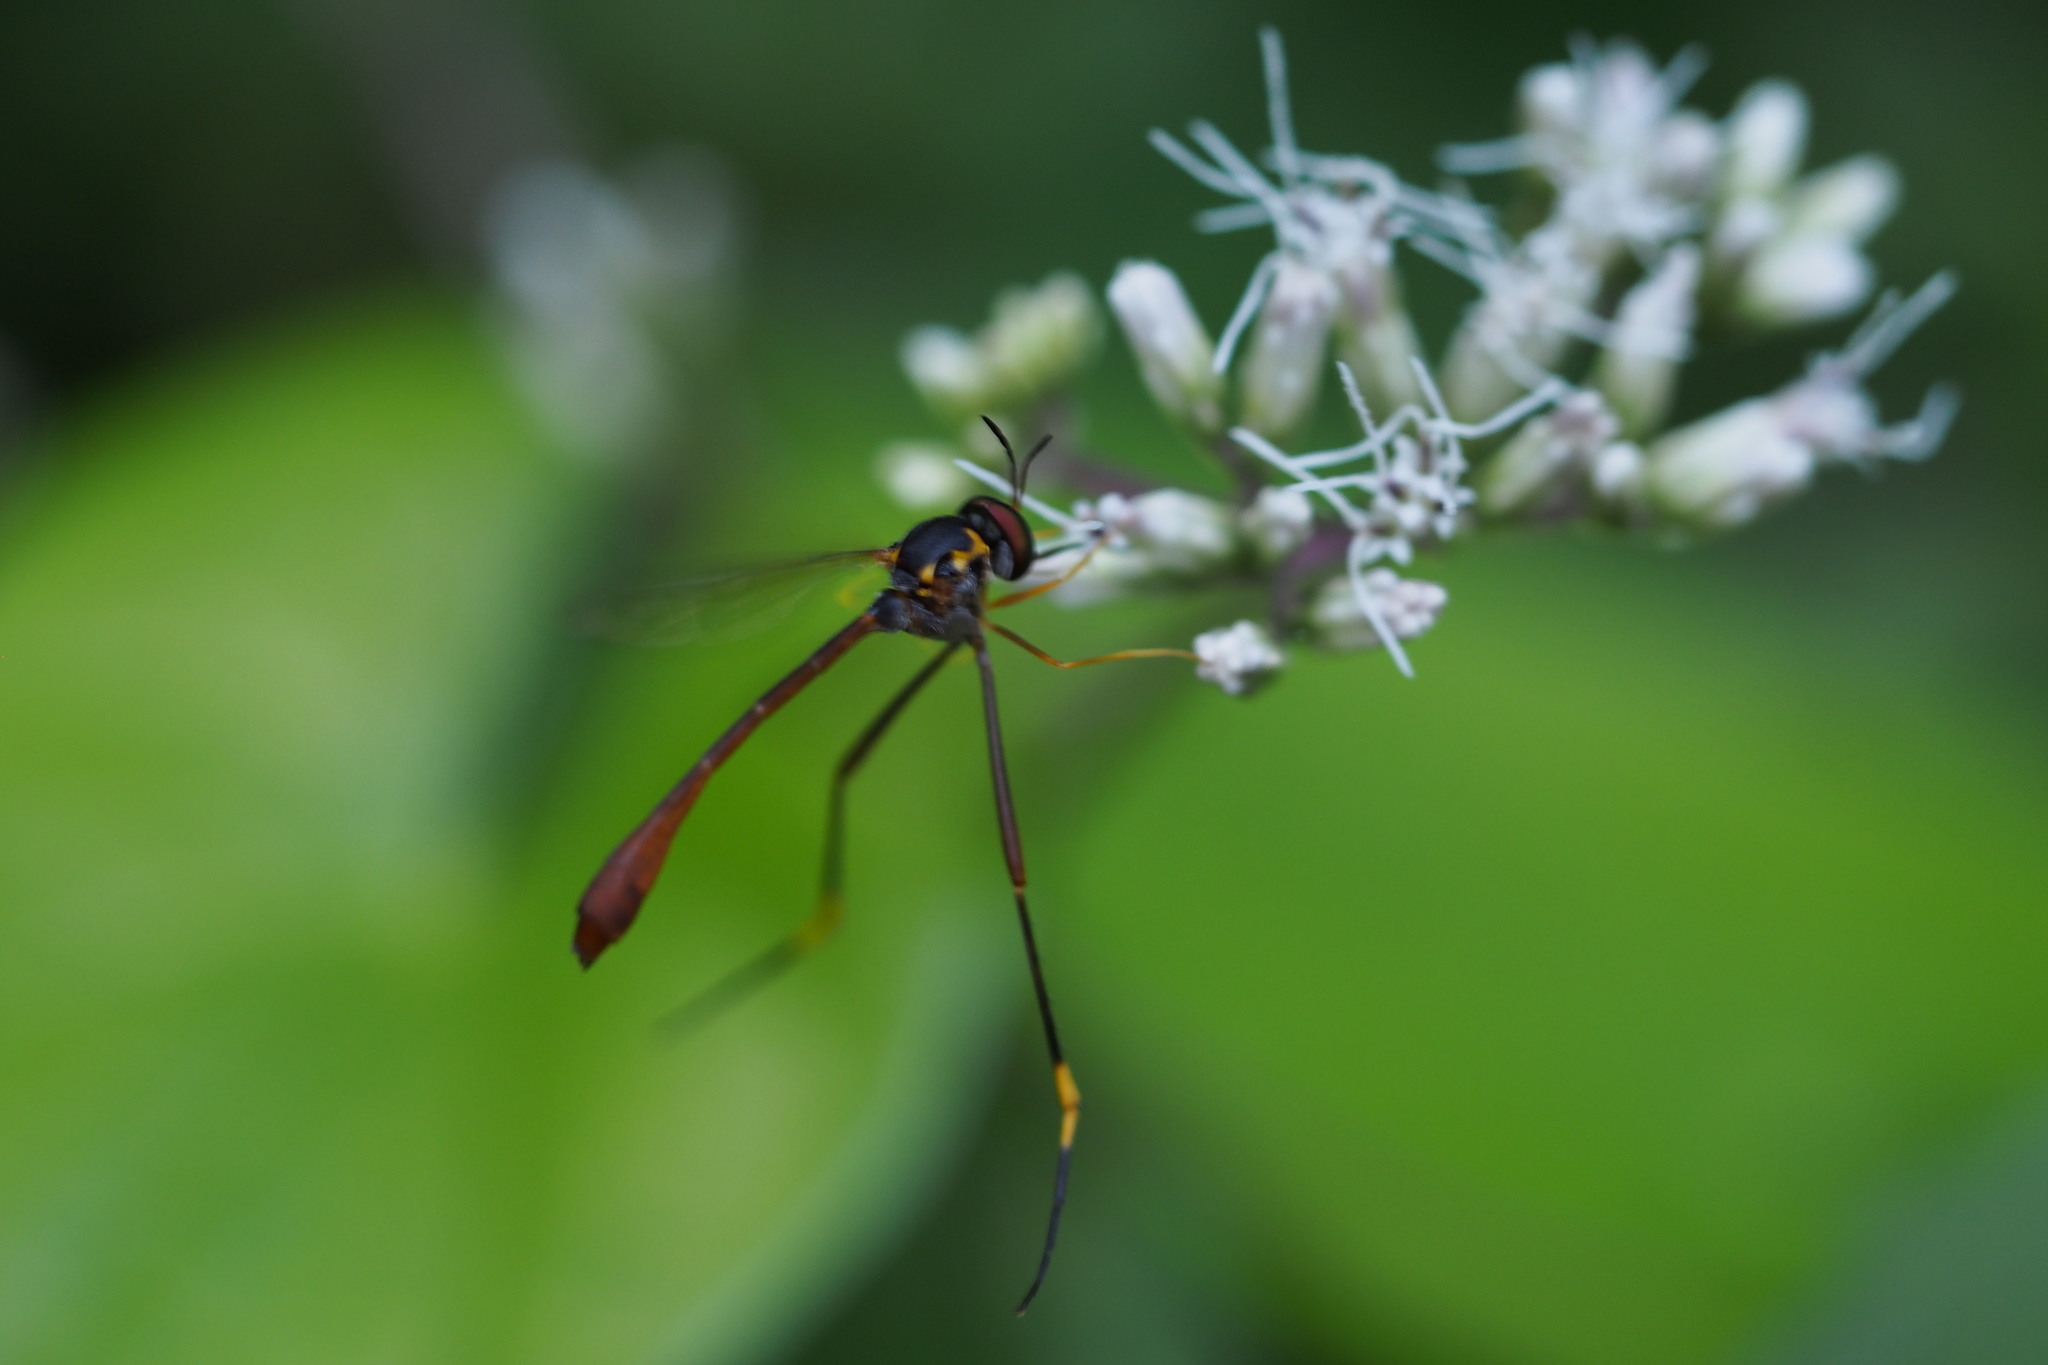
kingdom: Animalia
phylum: Arthropoda
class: Insecta
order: Diptera
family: Bombyliidae
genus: Systropus
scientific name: Systropus nitobei
